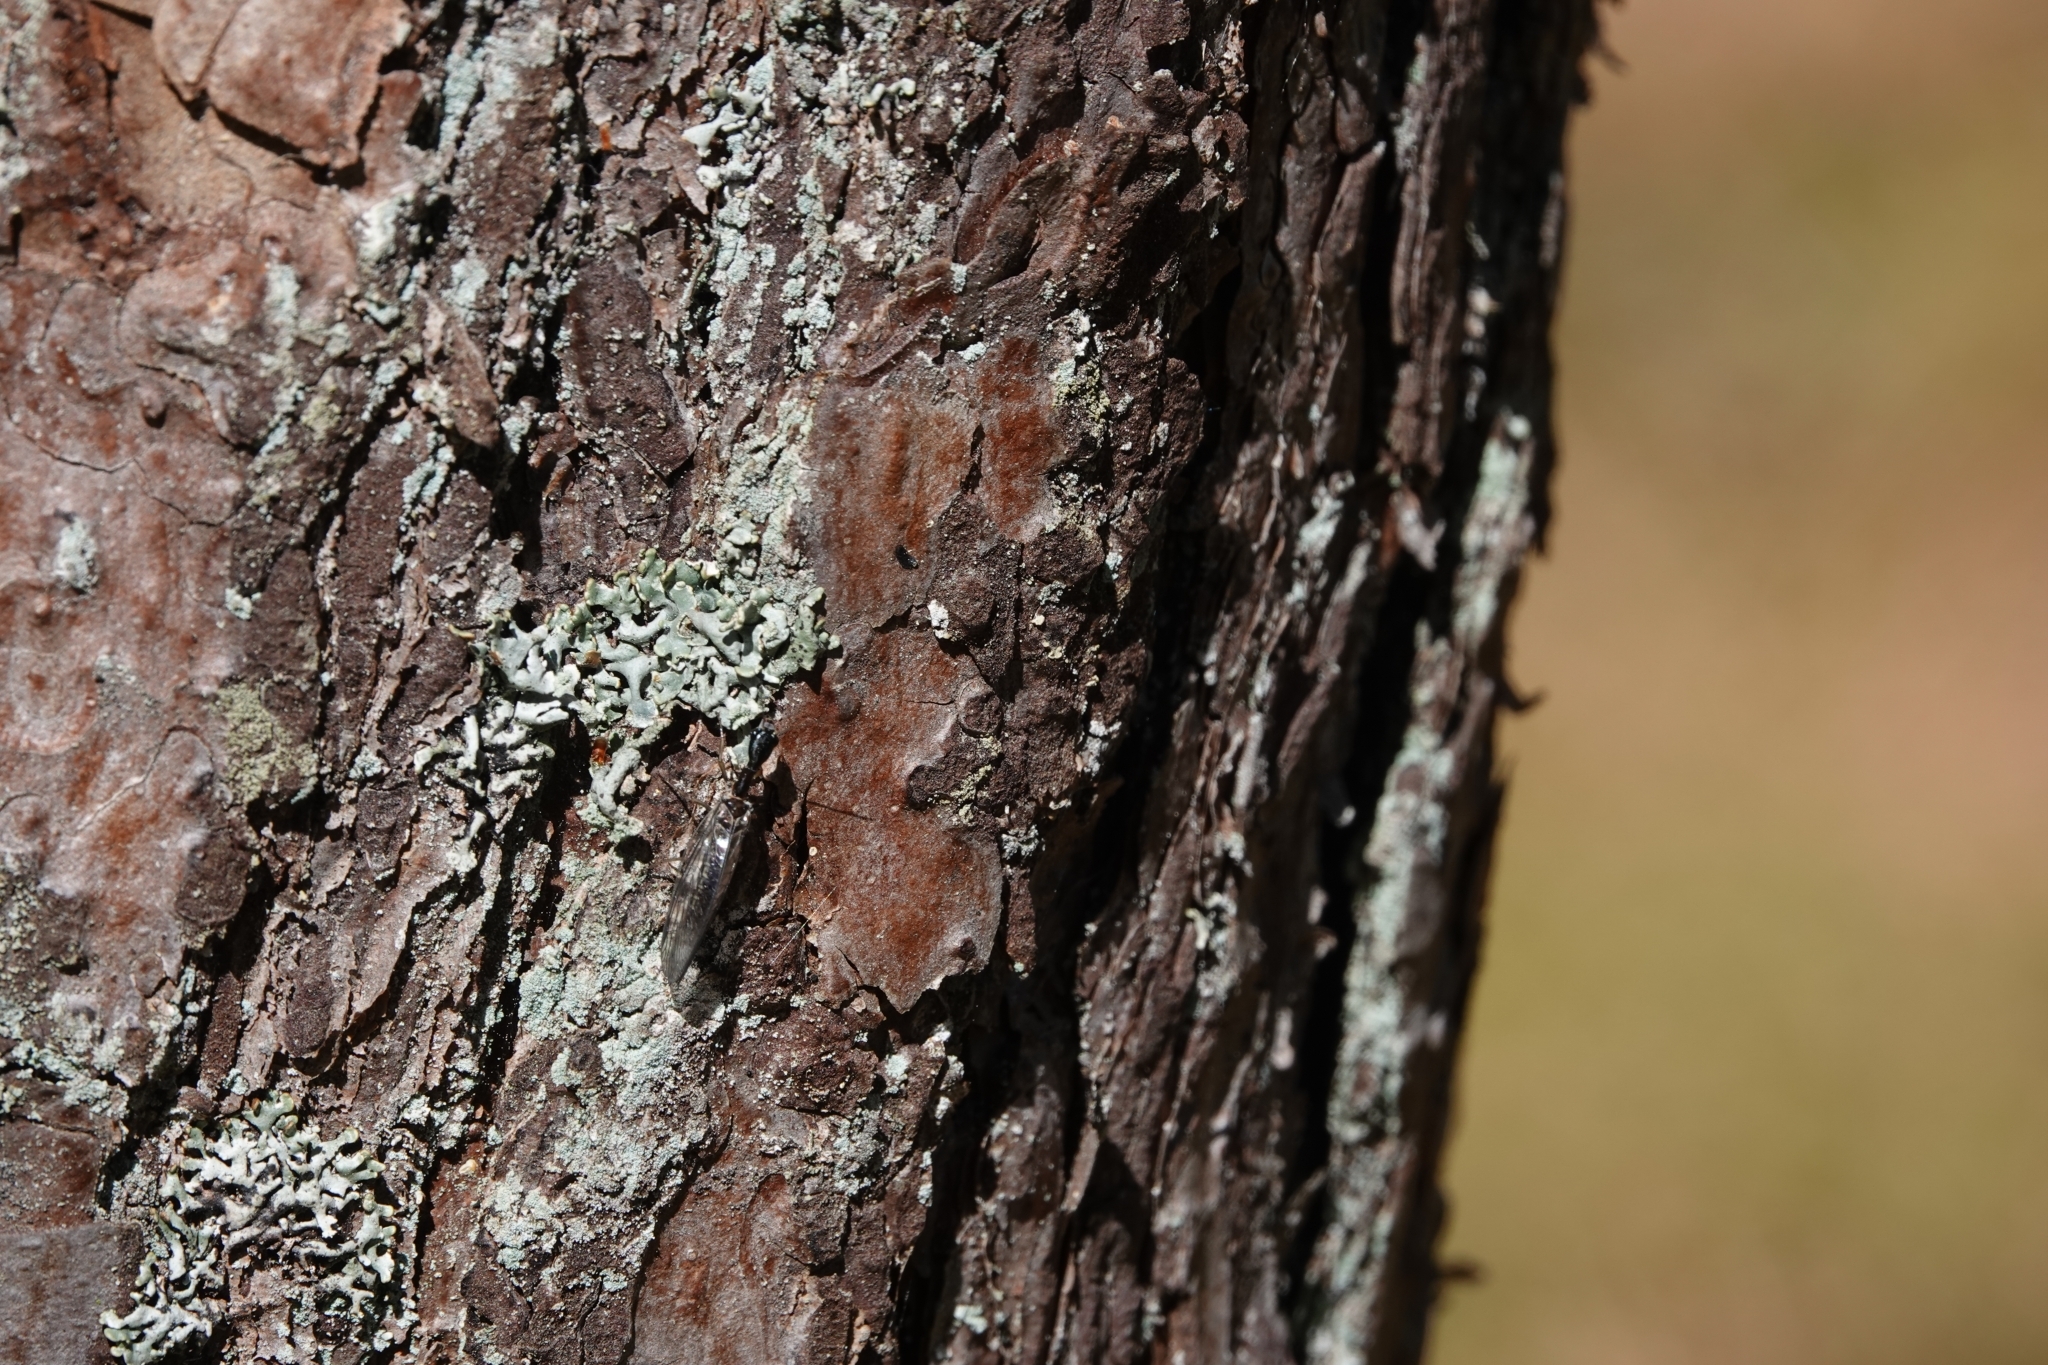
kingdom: Animalia
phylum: Arthropoda
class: Insecta
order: Raphidioptera
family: Raphidiidae
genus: Phaeostigma
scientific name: Phaeostigma notatum
